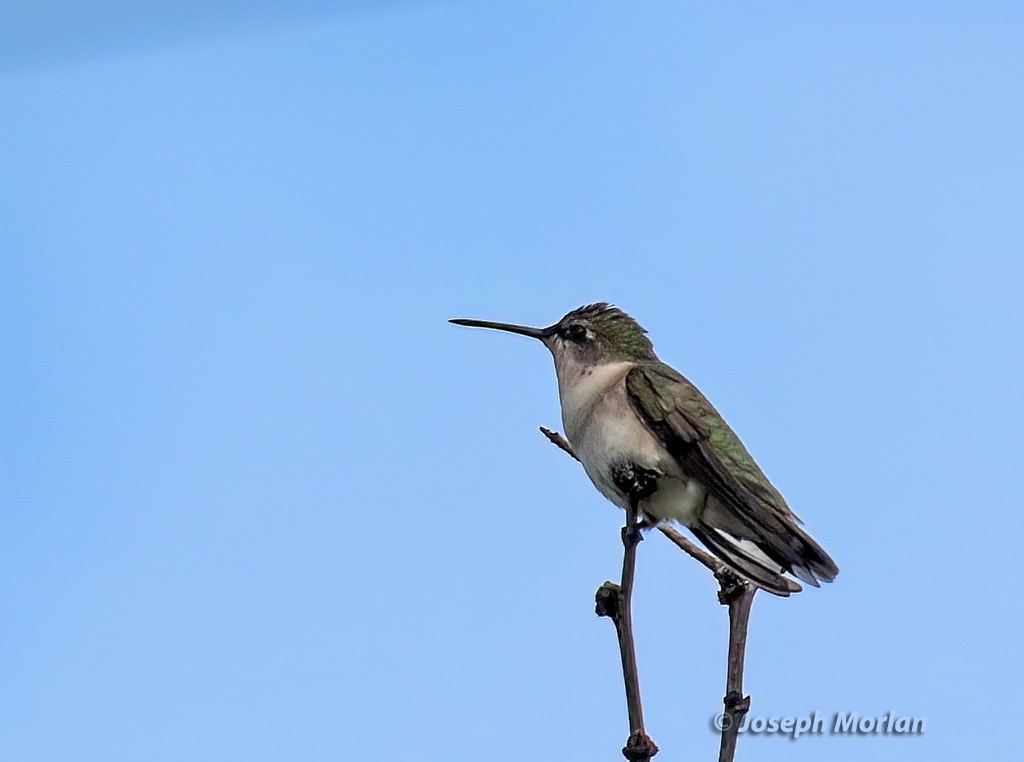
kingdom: Animalia
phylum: Chordata
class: Aves
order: Apodiformes
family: Trochilidae
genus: Archilochus
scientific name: Archilochus colubris
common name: Ruby-throated hummingbird
